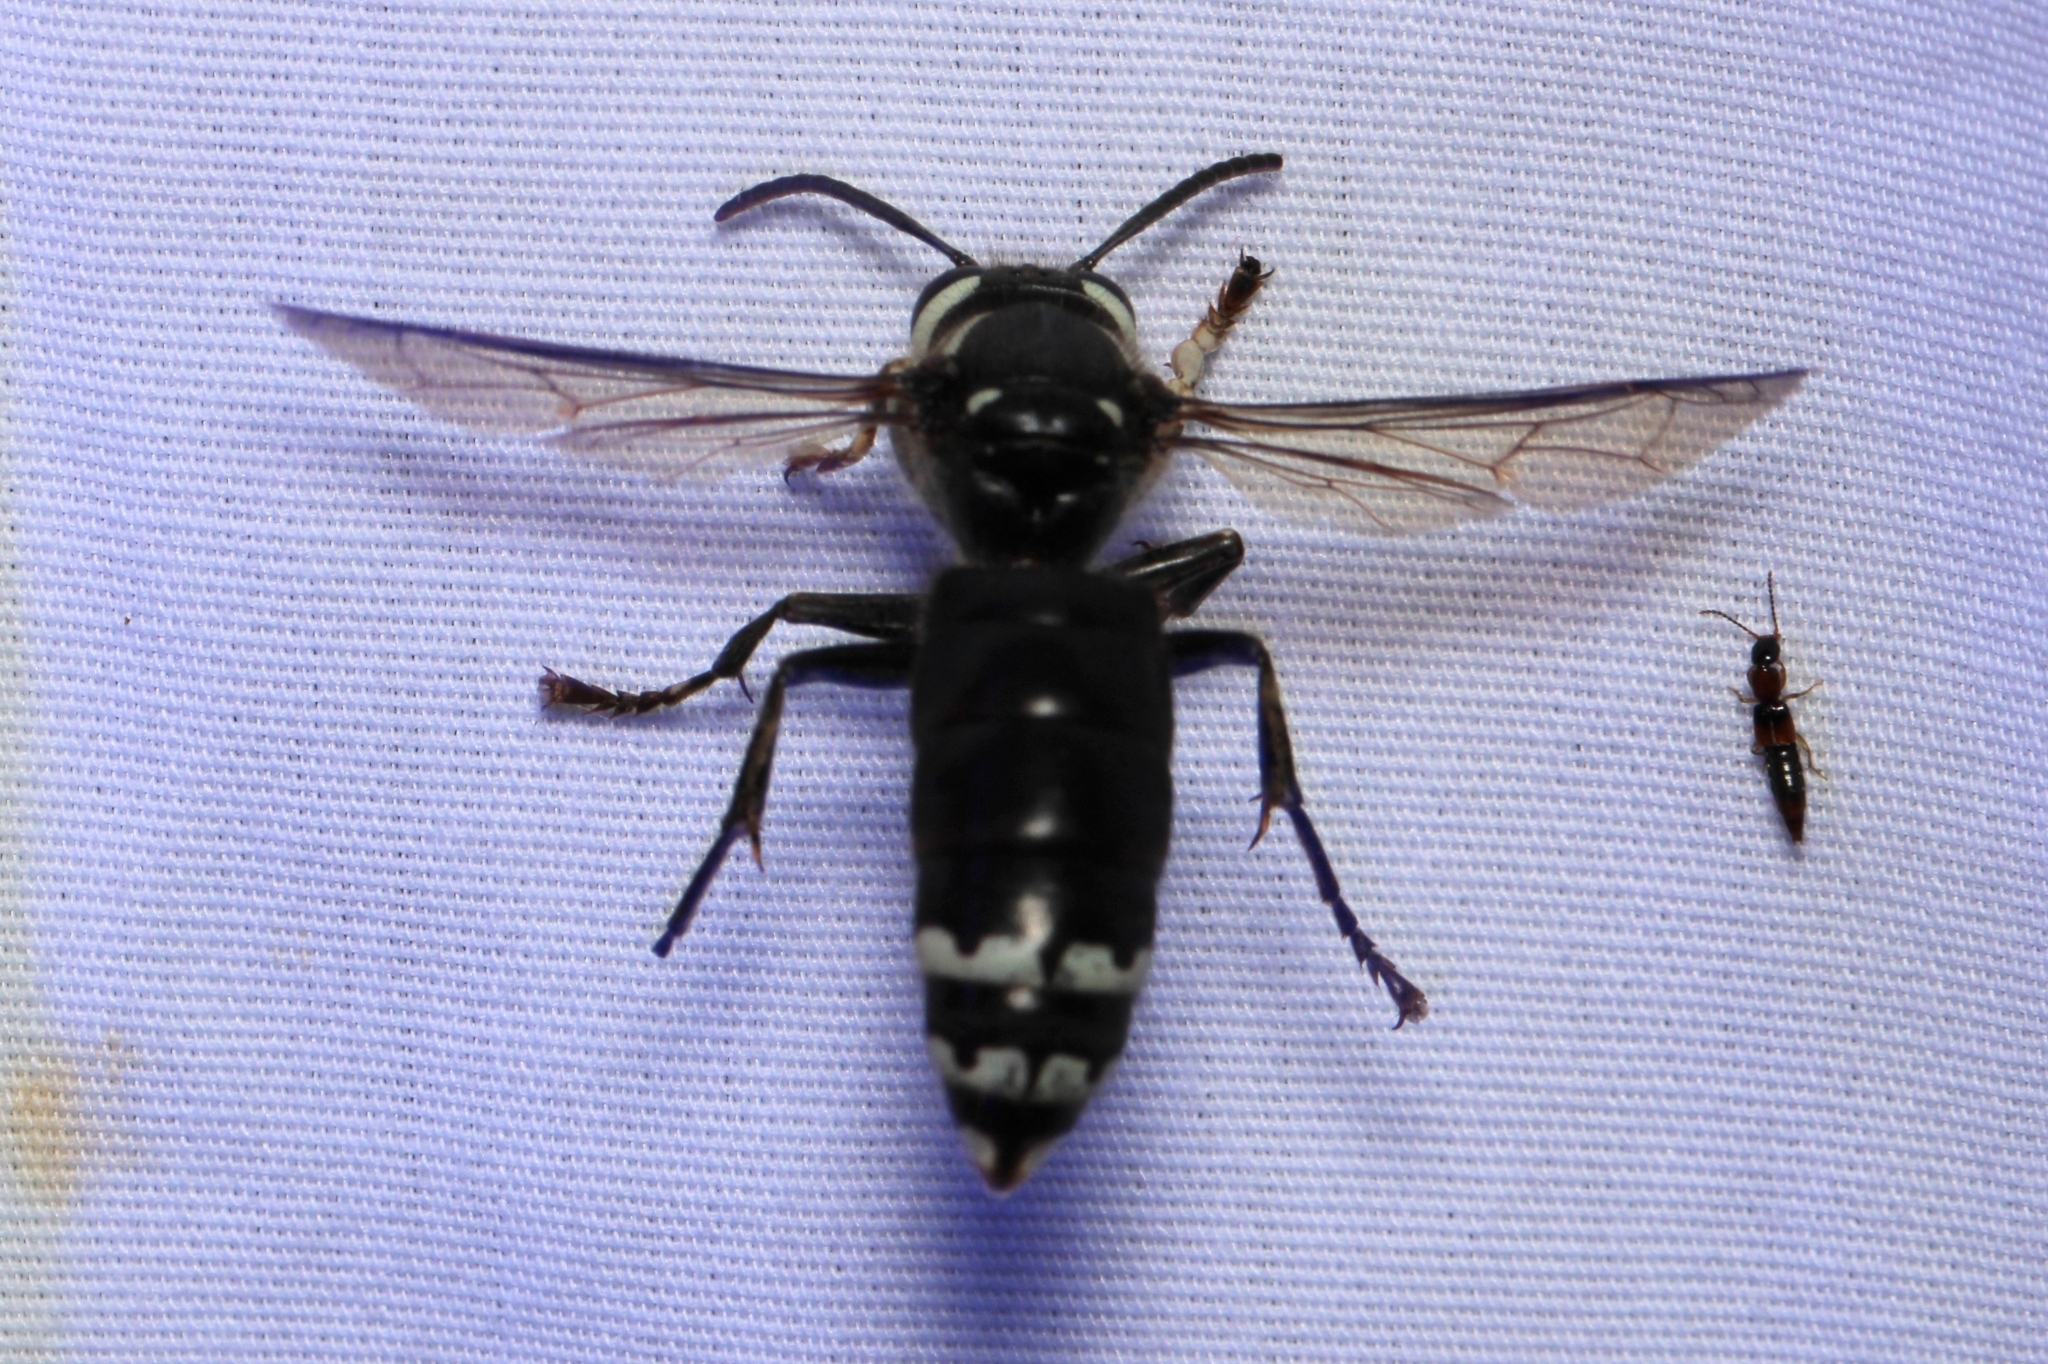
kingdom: Animalia
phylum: Arthropoda
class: Insecta
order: Hymenoptera
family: Vespidae
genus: Dolichovespula
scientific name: Dolichovespula maculata
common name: Bald-faced hornet
